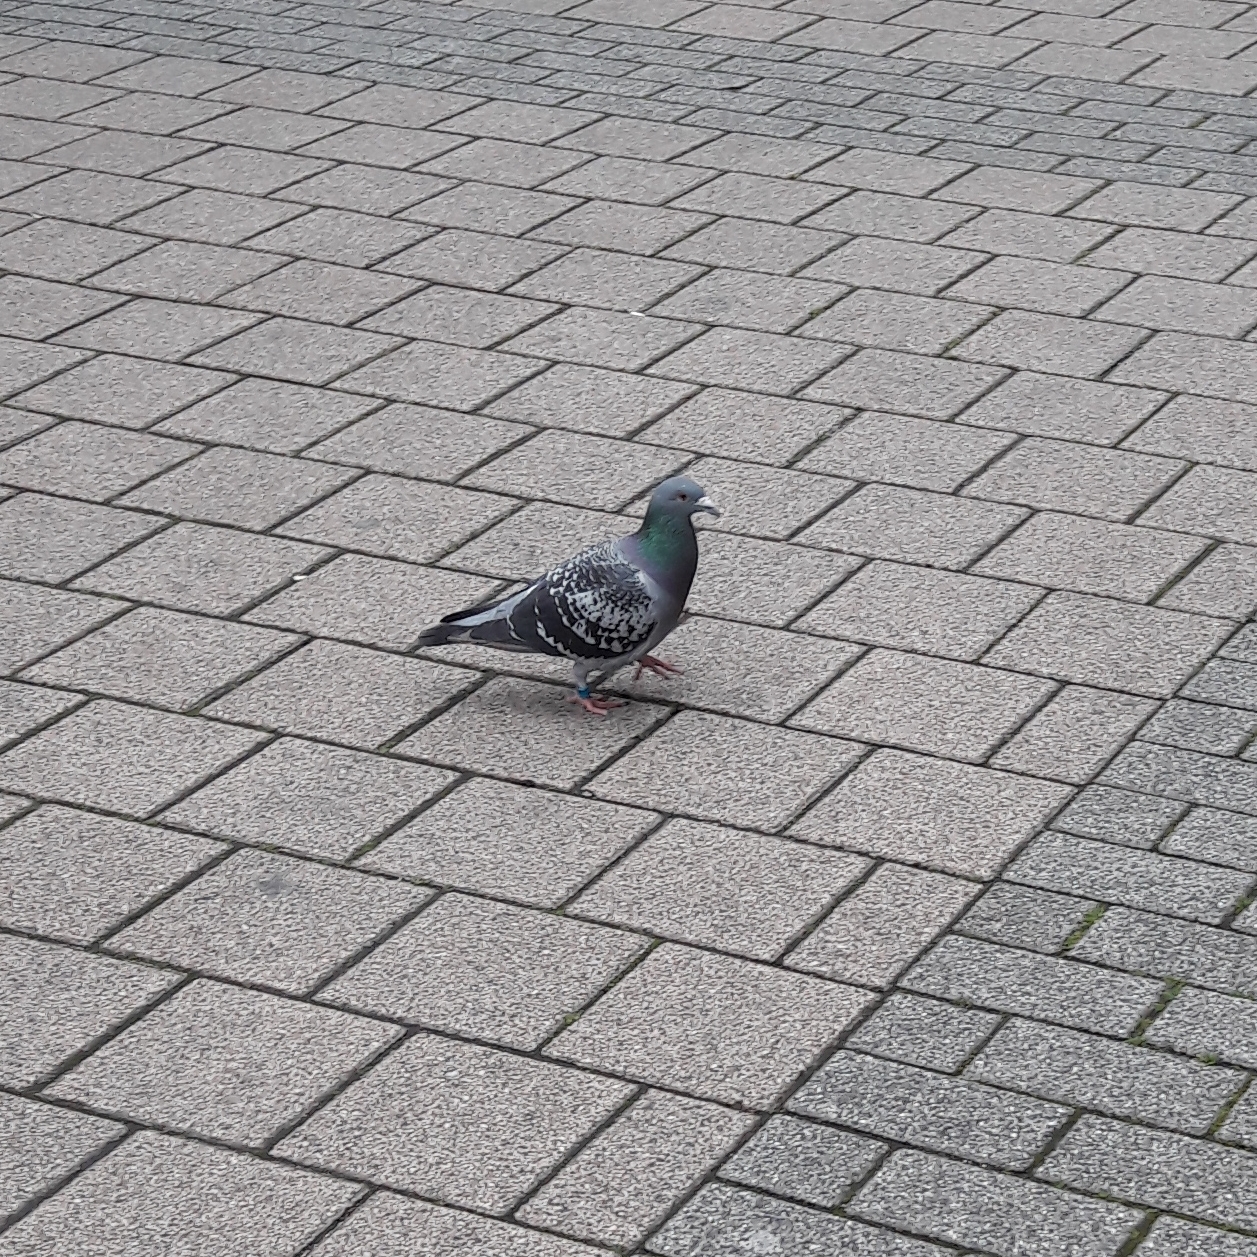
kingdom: Animalia
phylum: Chordata
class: Aves
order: Columbiformes
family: Columbidae
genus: Columba
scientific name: Columba livia
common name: Rock pigeon
